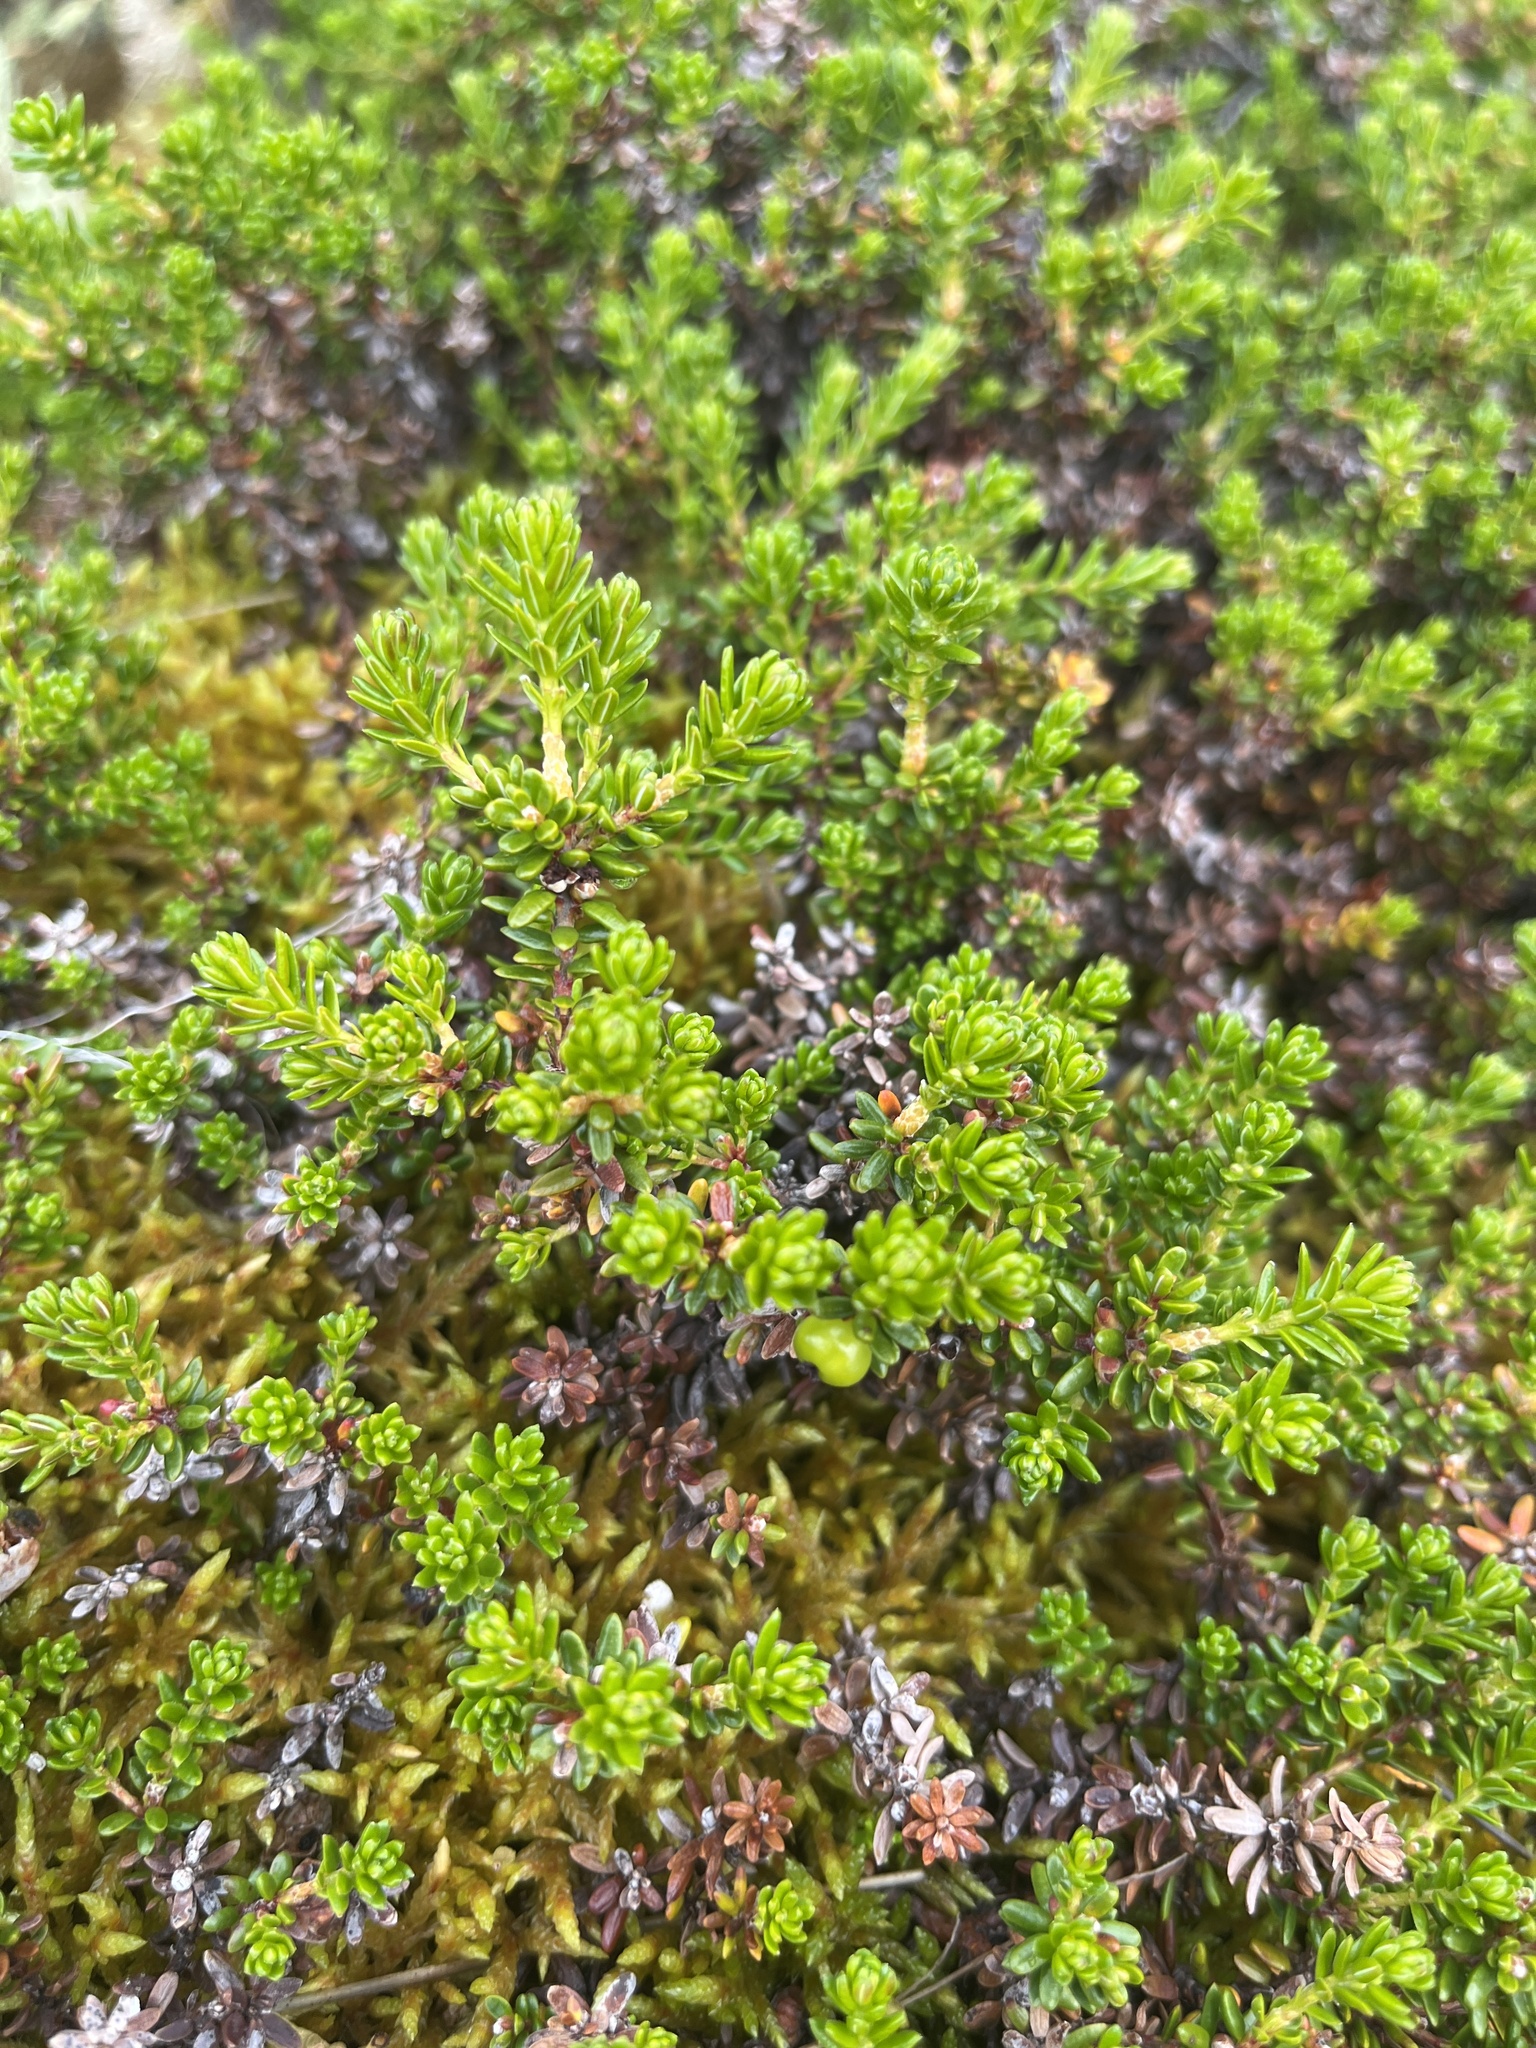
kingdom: Plantae
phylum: Tracheophyta
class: Magnoliopsida
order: Ericales
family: Ericaceae
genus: Empetrum
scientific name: Empetrum hermaphroditum
